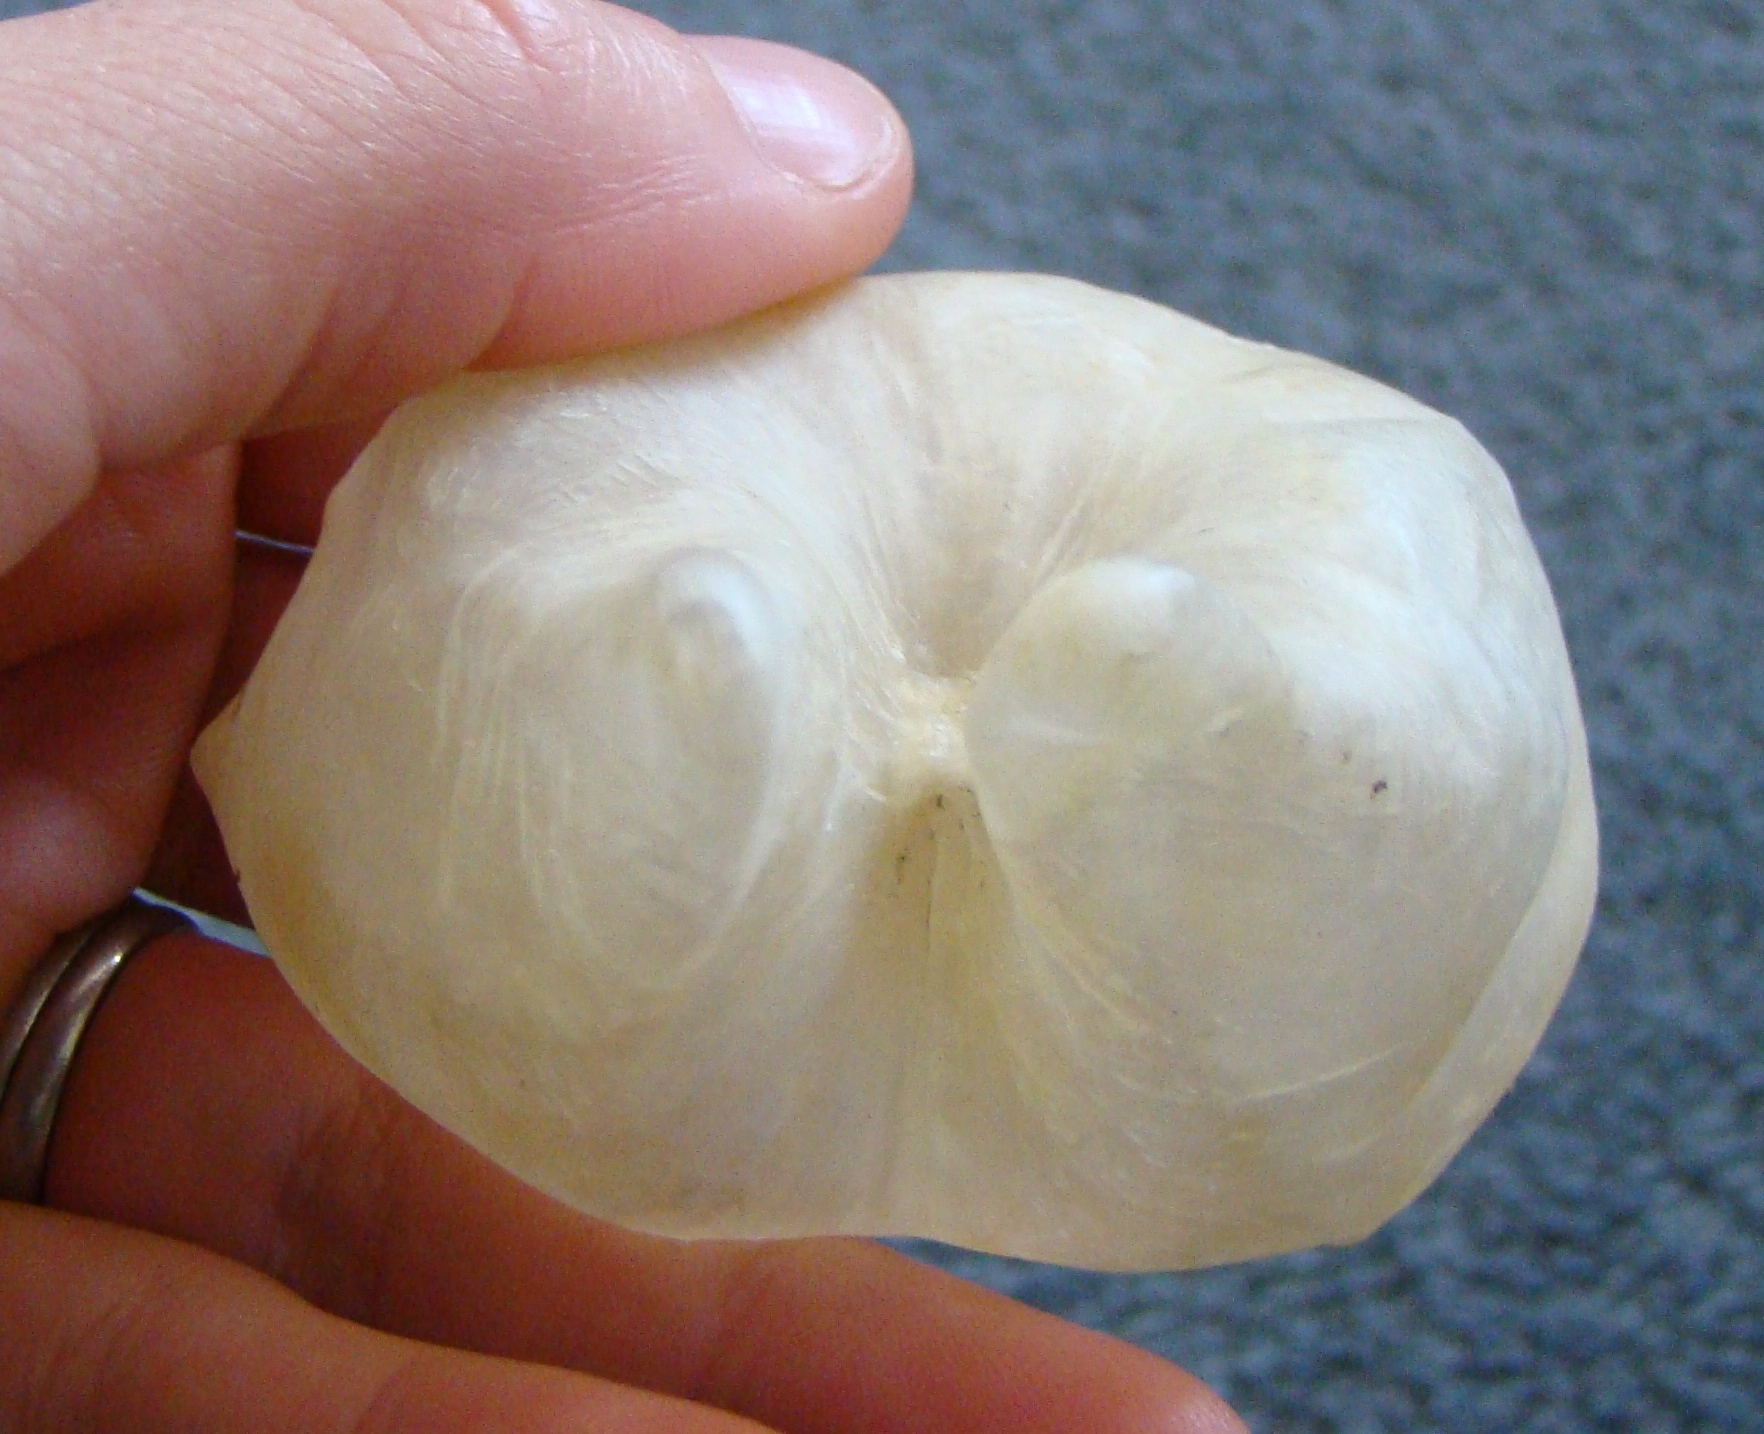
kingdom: Animalia
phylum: Chordata
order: Tetraodontiformes
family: Diodontidae
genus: Allomycterus
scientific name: Allomycterus pilatus
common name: No common name
